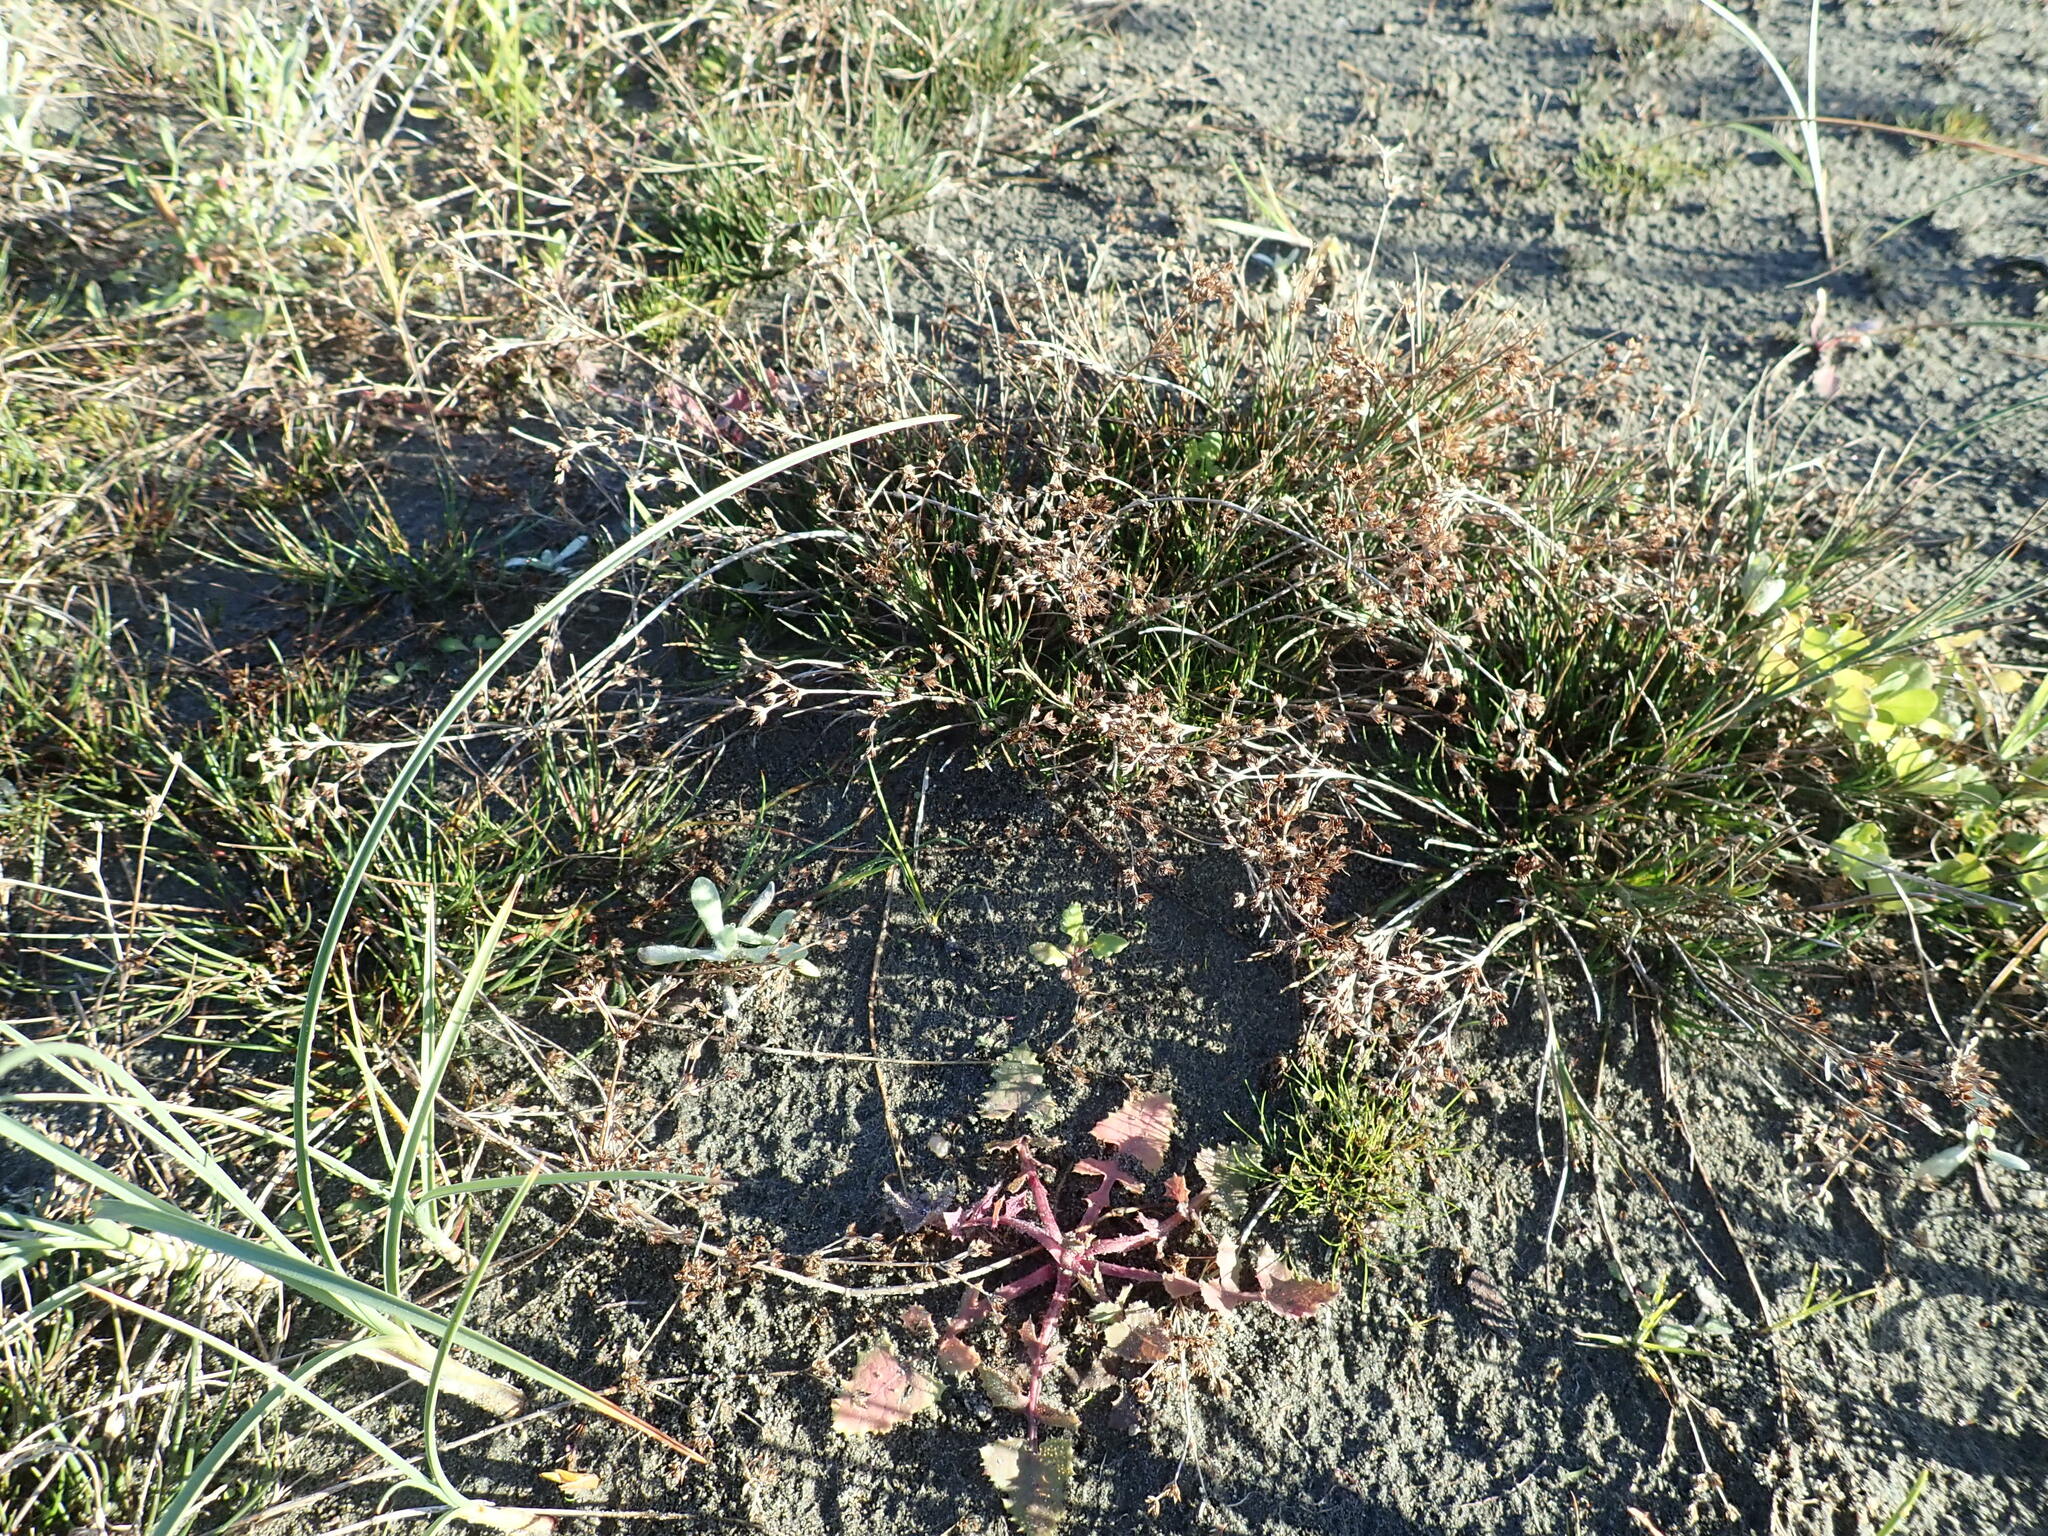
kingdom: Plantae
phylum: Tracheophyta
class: Liliopsida
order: Poales
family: Juncaceae
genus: Juncus
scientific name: Juncus articulatus
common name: Jointed rush
